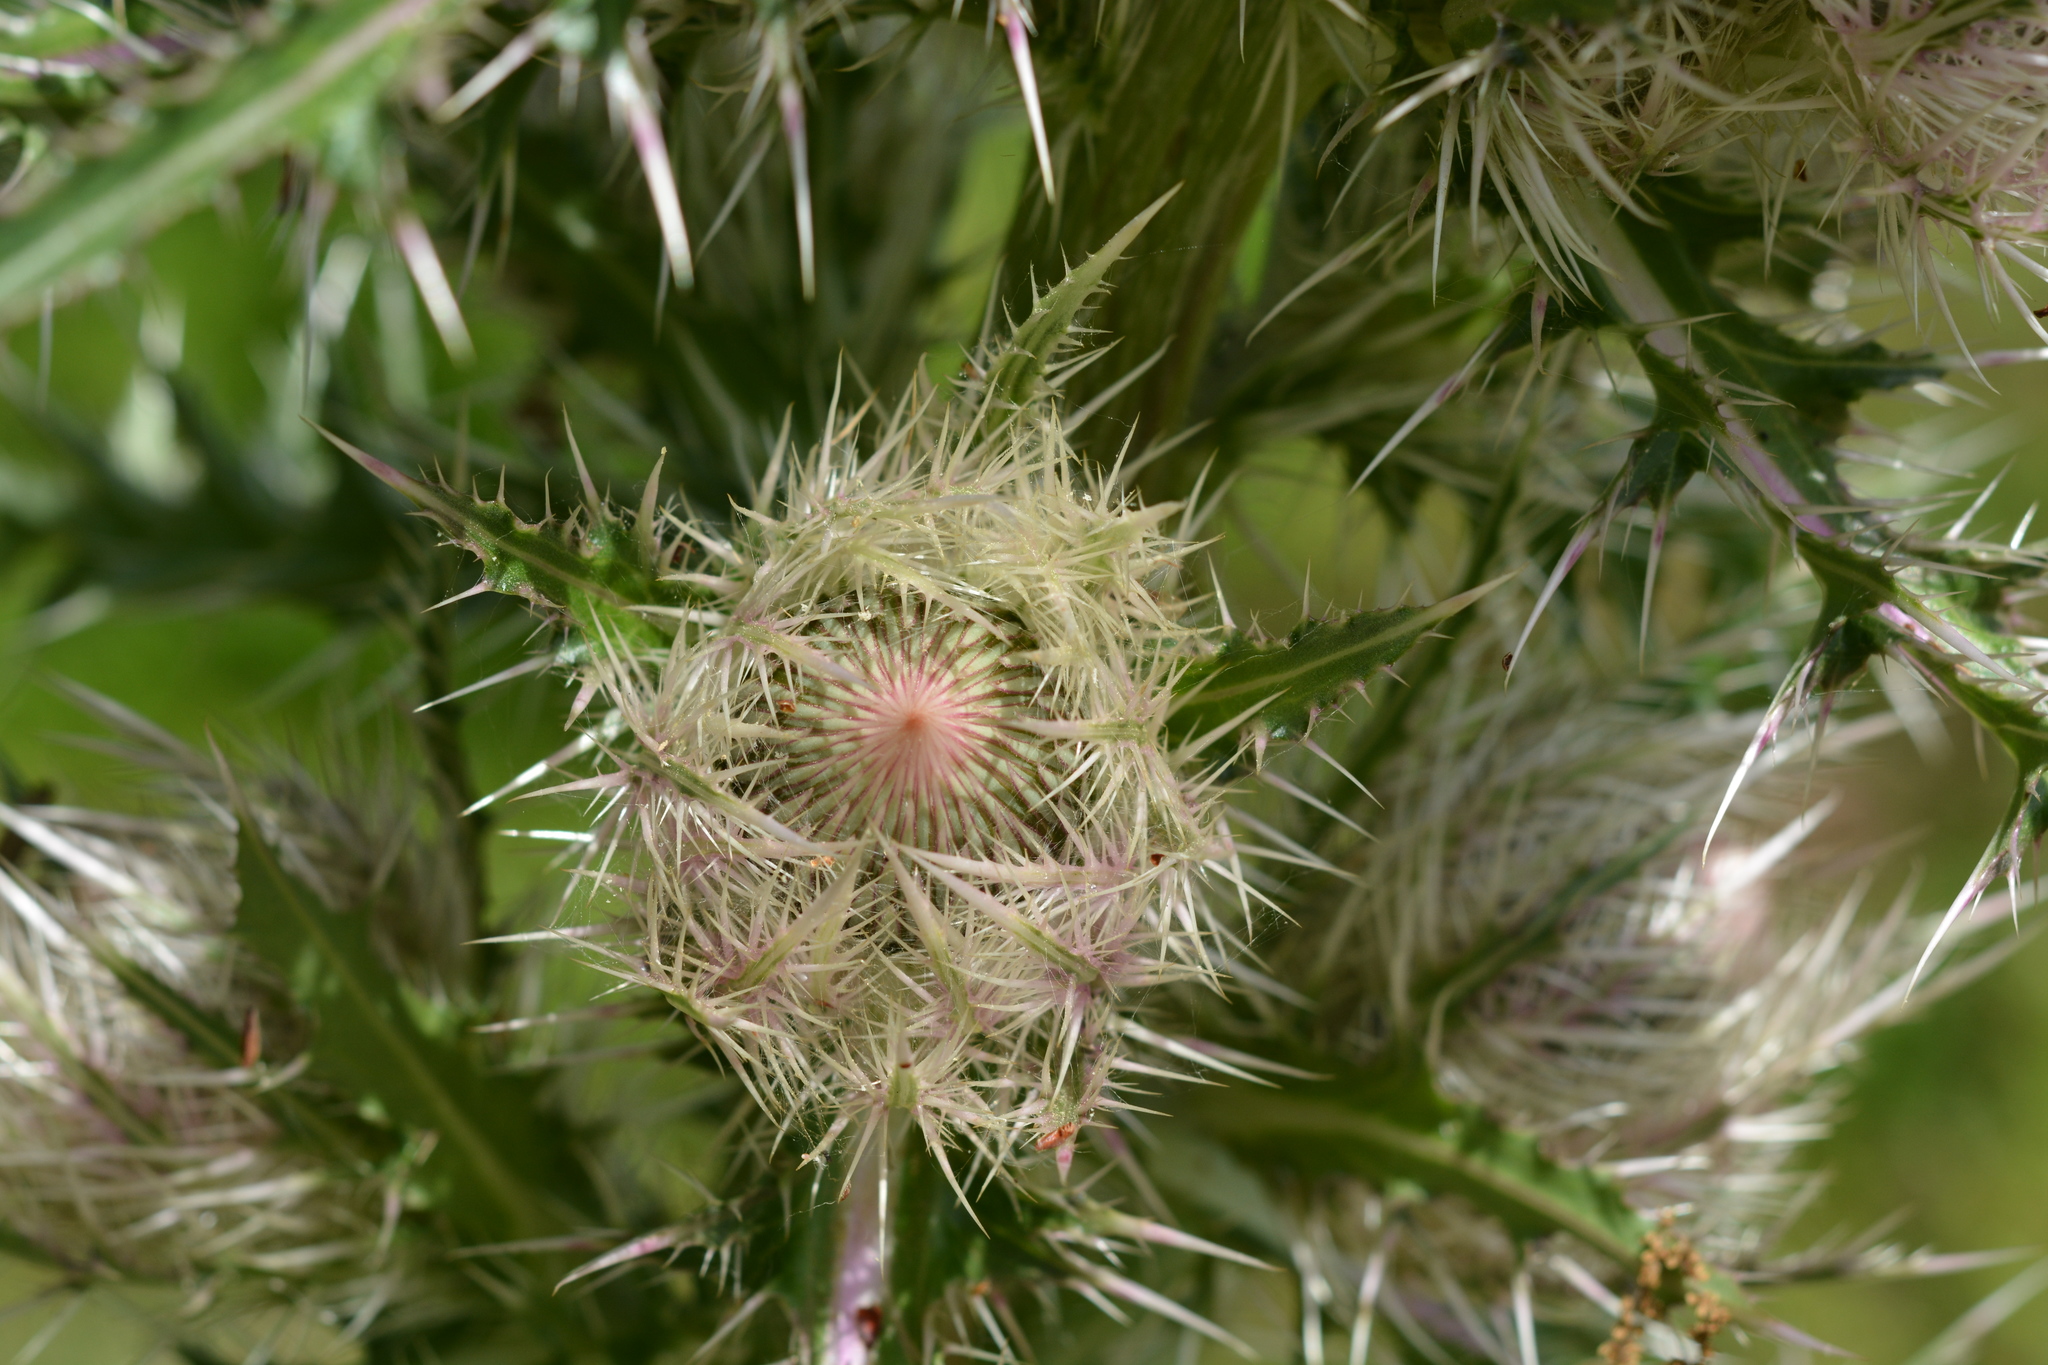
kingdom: Plantae
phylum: Tracheophyta
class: Magnoliopsida
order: Asterales
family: Asteraceae
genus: Cirsium
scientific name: Cirsium horridulum
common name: Bristly thistle
